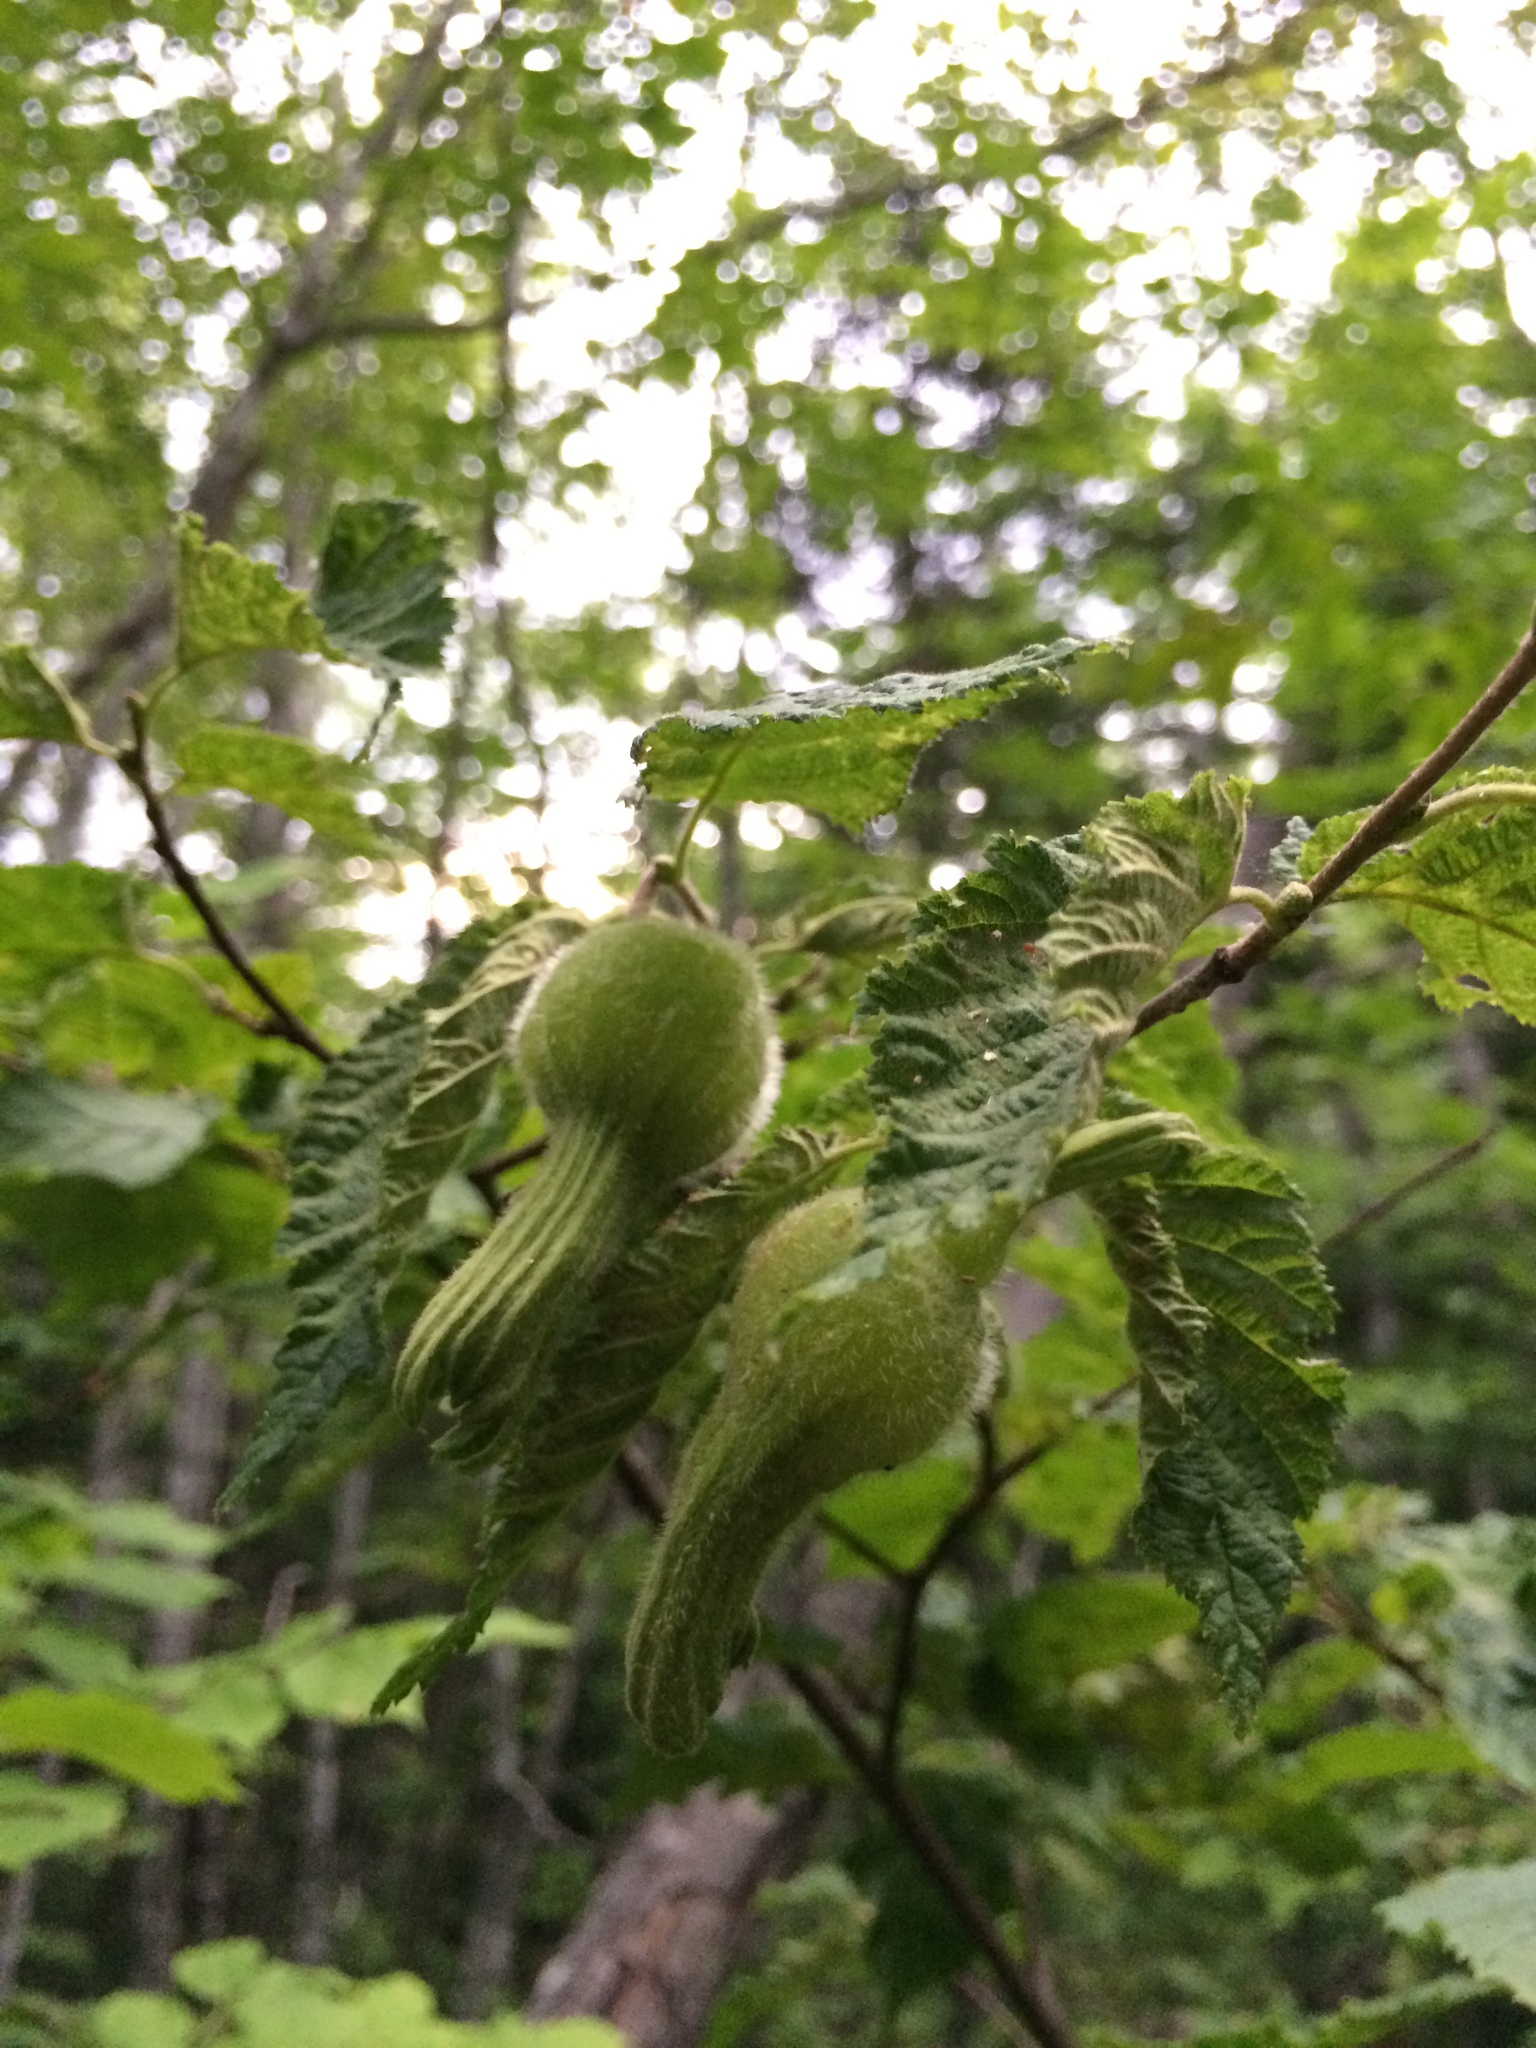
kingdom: Plantae
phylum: Tracheophyta
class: Magnoliopsida
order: Fagales
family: Betulaceae
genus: Corylus
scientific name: Corylus cornuta
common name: Beaked hazel
